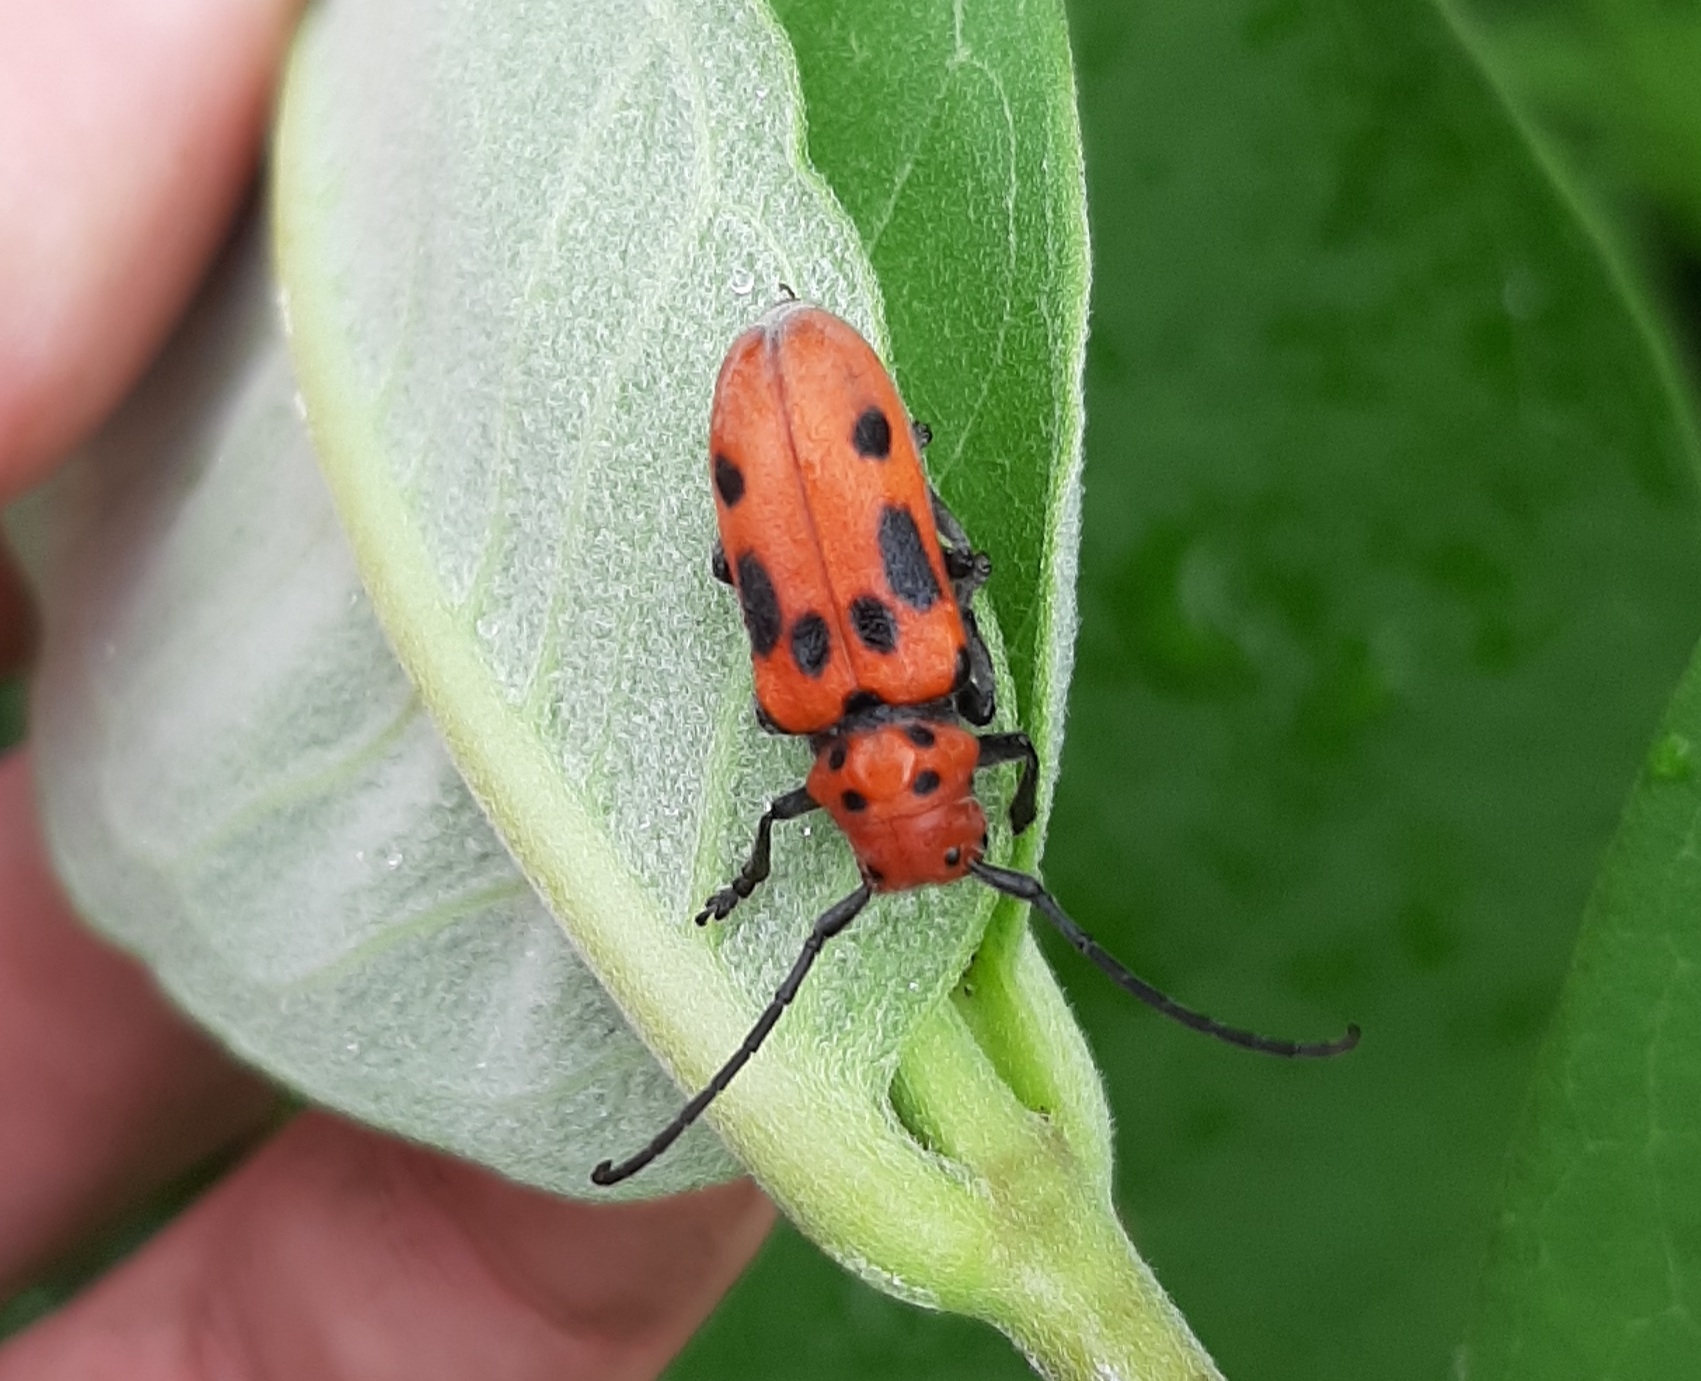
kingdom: Animalia
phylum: Arthropoda
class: Insecta
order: Coleoptera
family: Cerambycidae
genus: Tetraopes
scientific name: Tetraopes tetrophthalmus
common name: Red milkweed beetle
